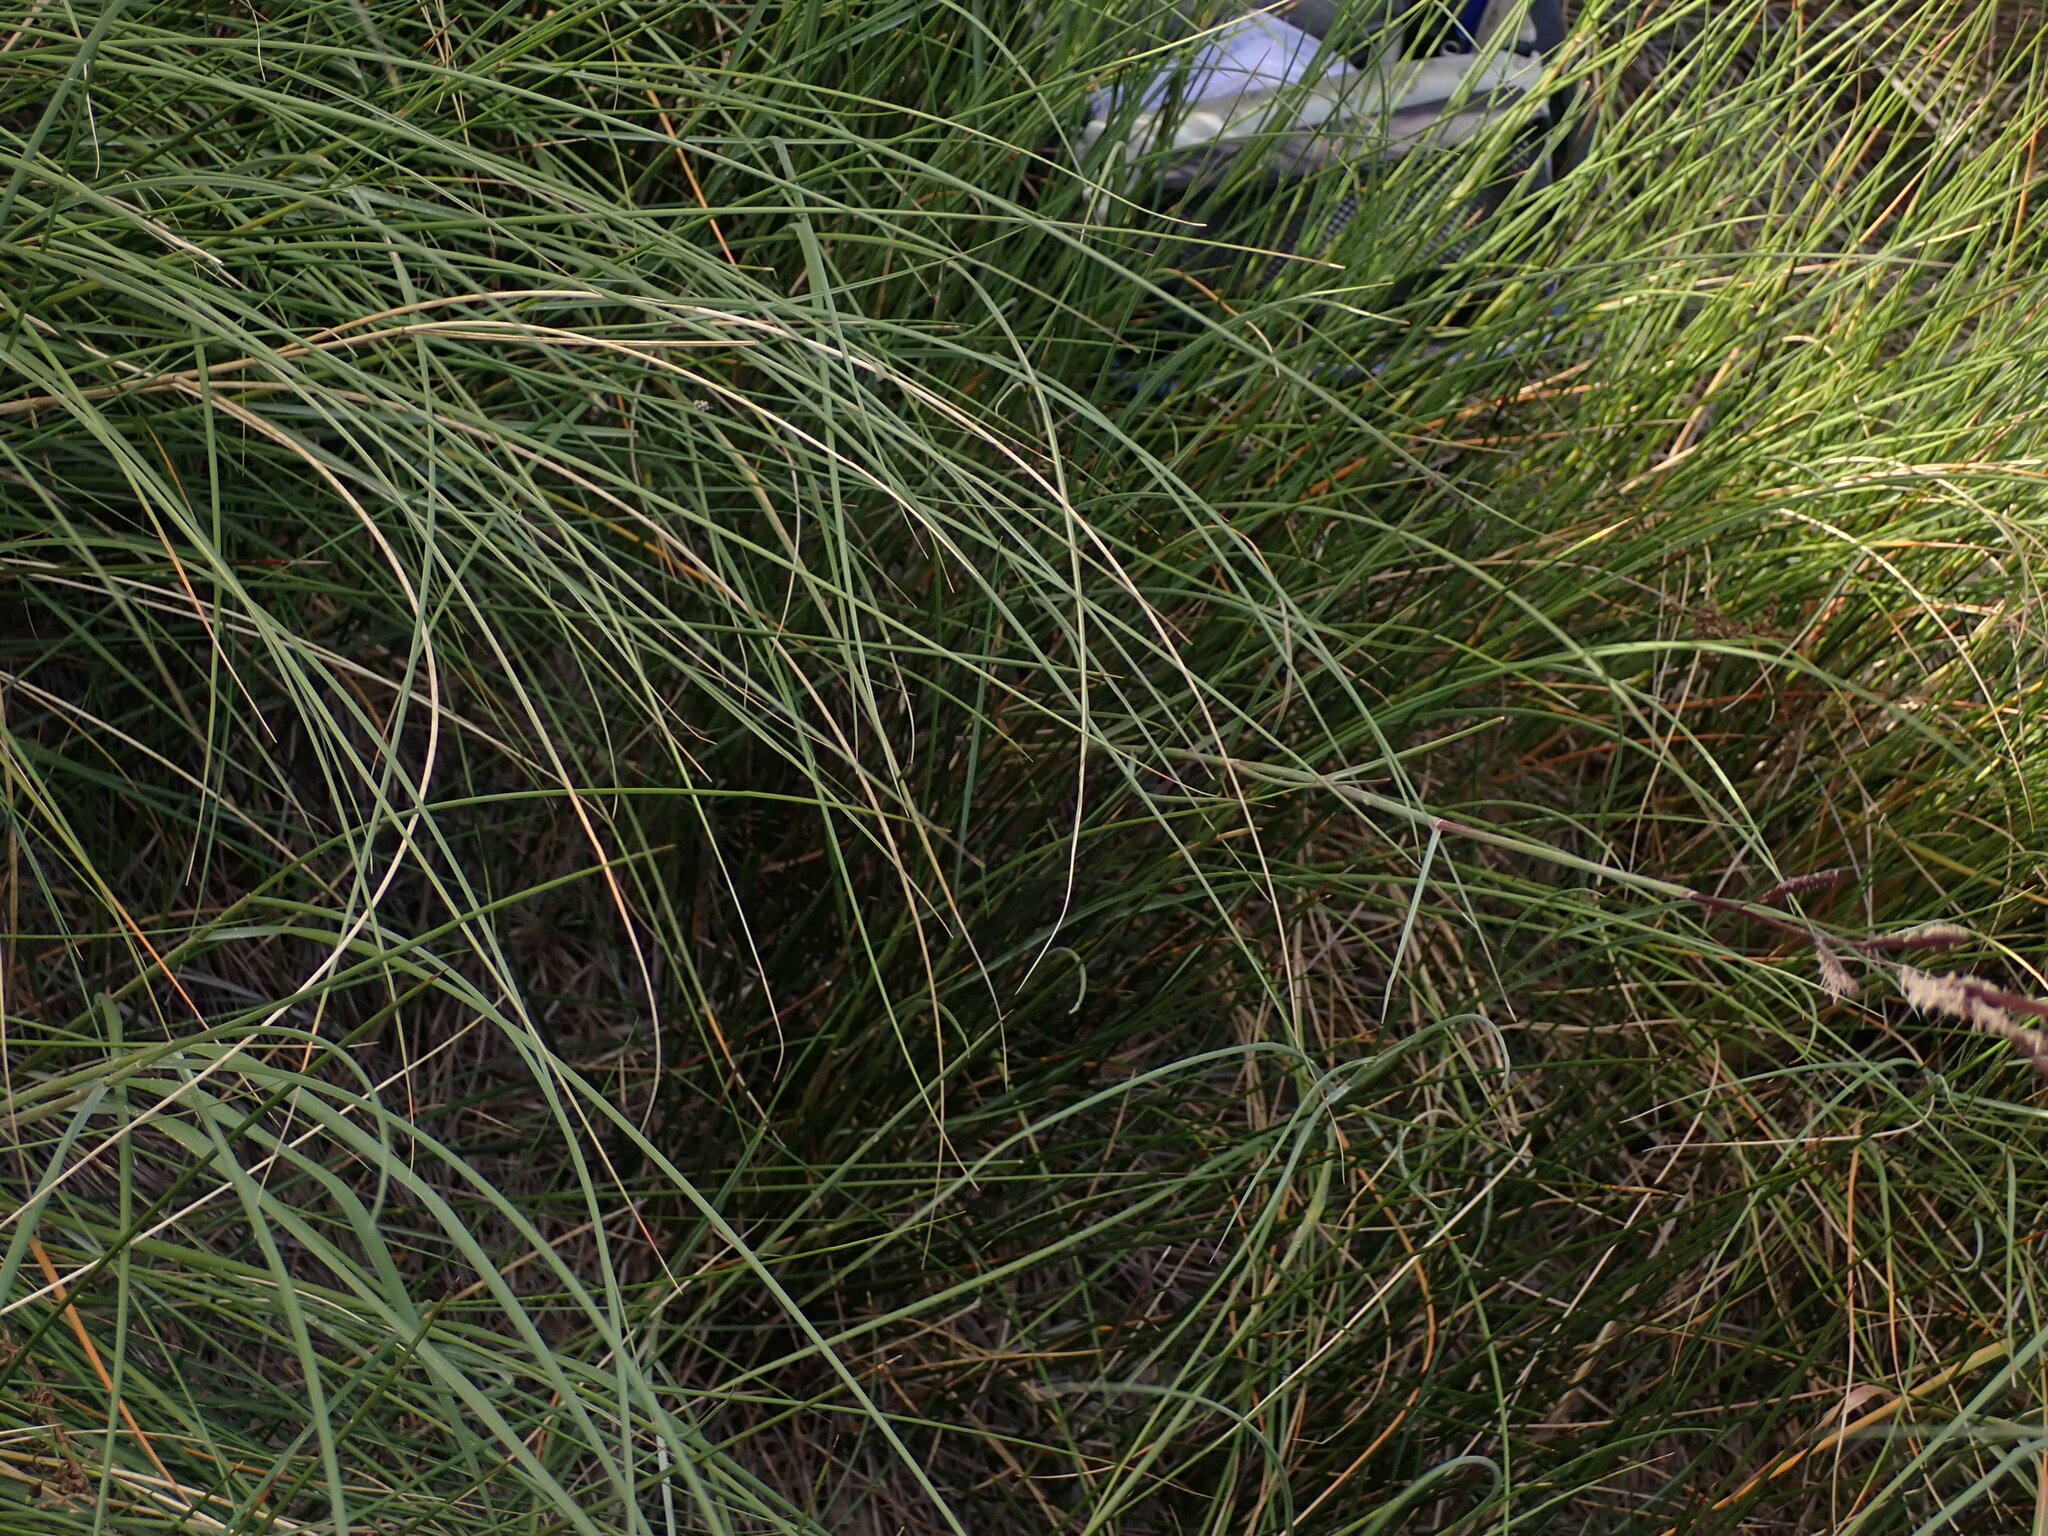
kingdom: Plantae
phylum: Tracheophyta
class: Liliopsida
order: Poales
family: Poaceae
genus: Sporobolus
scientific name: Sporobolus pumilus
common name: Highwater grass
